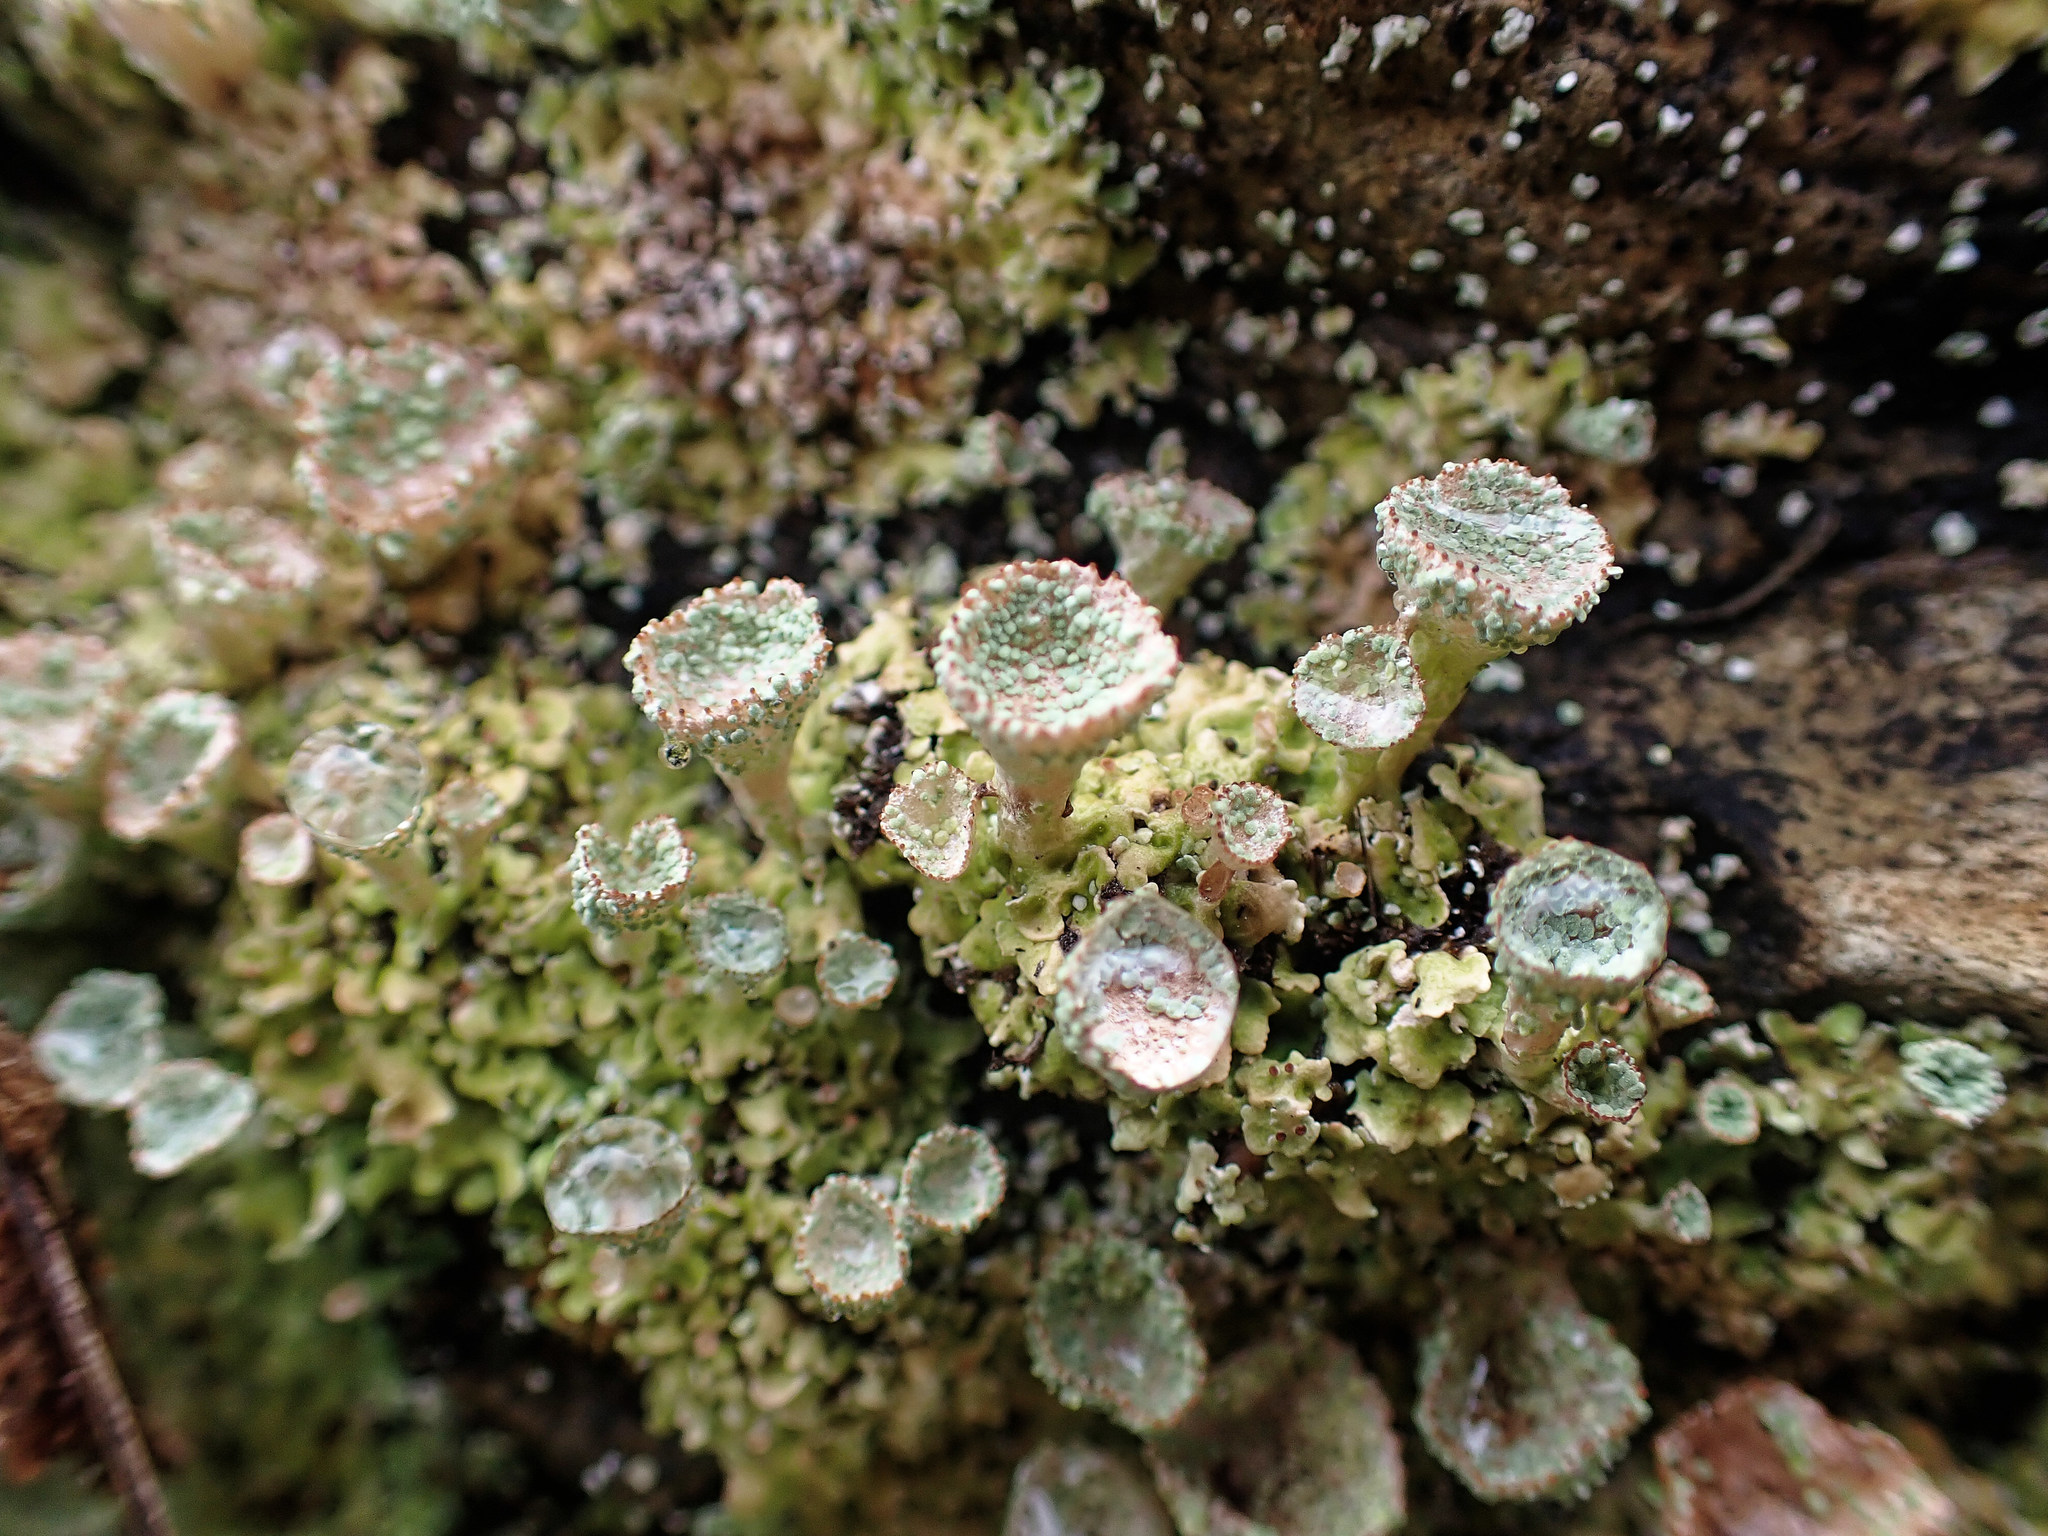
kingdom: Fungi
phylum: Ascomycota
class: Lecanoromycetes
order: Lecanorales
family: Cladoniaceae
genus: Cladonia
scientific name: Cladonia pyxidata
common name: Pebbled pixie cup
